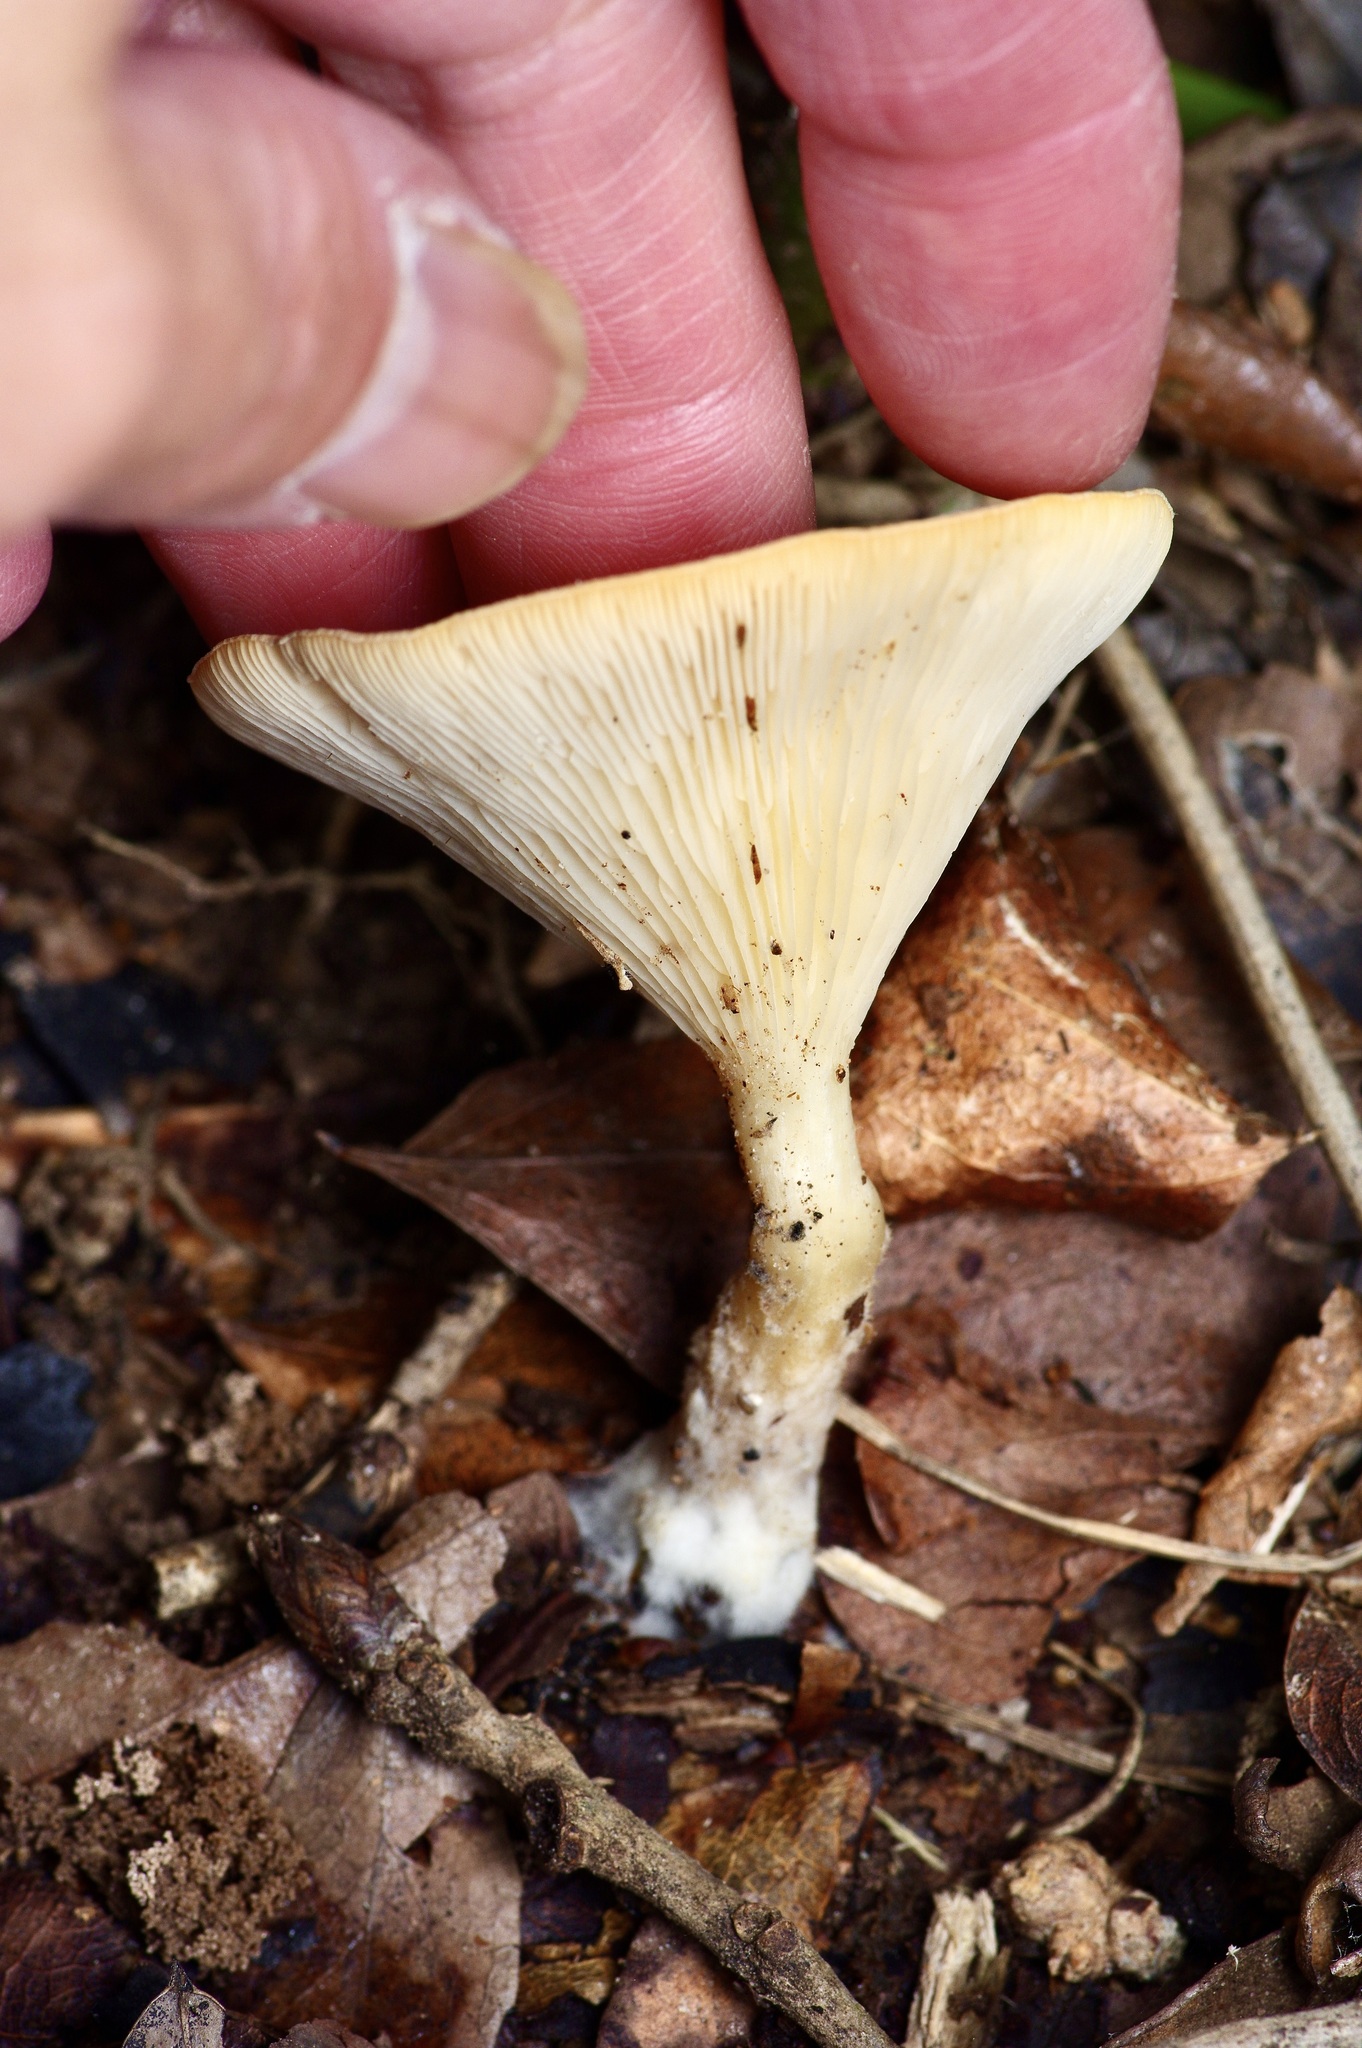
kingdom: Fungi
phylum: Basidiomycota
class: Agaricomycetes
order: Agaricales
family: Tricholomataceae
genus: Infundibulicybe
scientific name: Infundibulicybe gibba
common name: Common funnel
